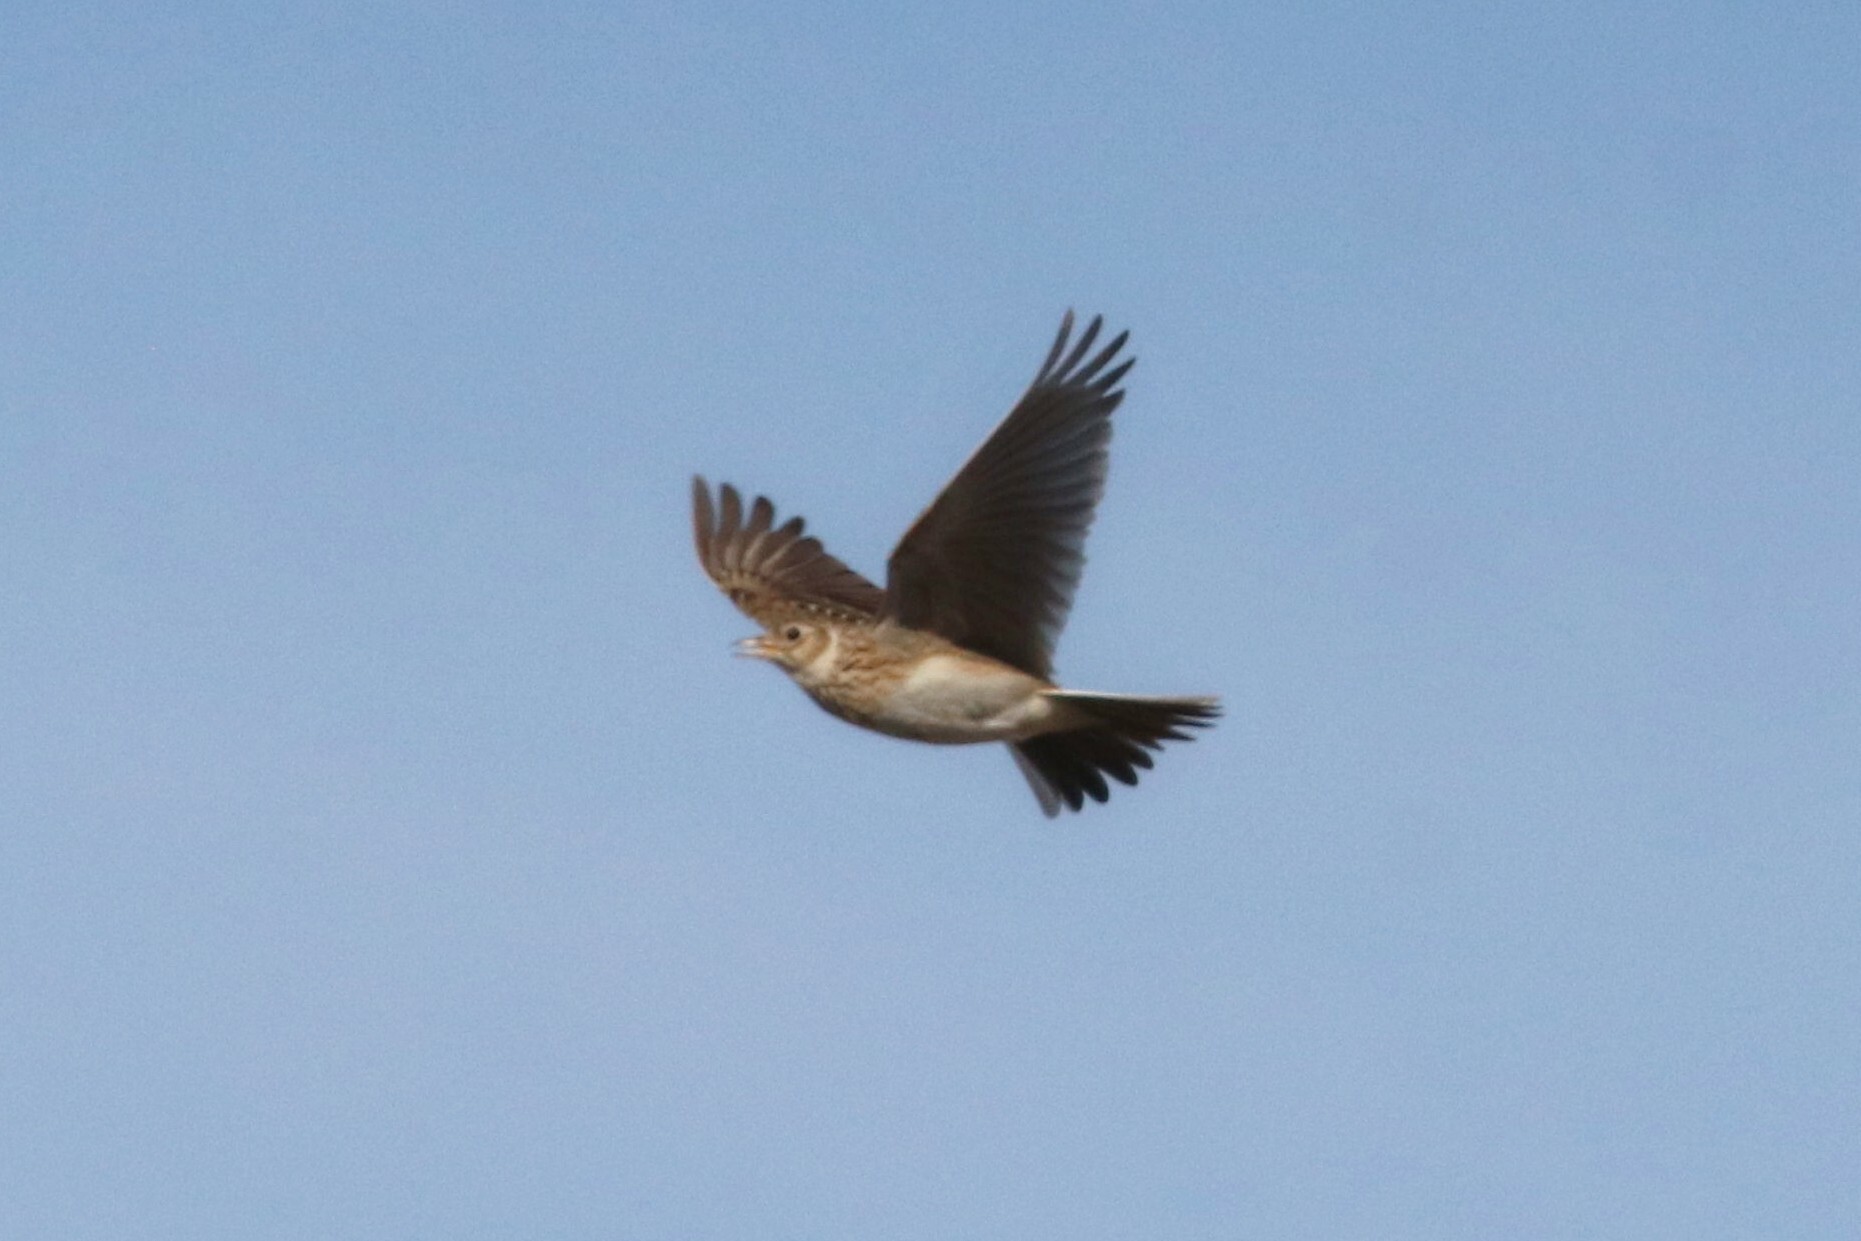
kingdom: Animalia
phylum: Chordata
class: Aves
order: Passeriformes
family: Alaudidae
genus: Alauda
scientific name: Alauda arvensis
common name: Eurasian skylark
